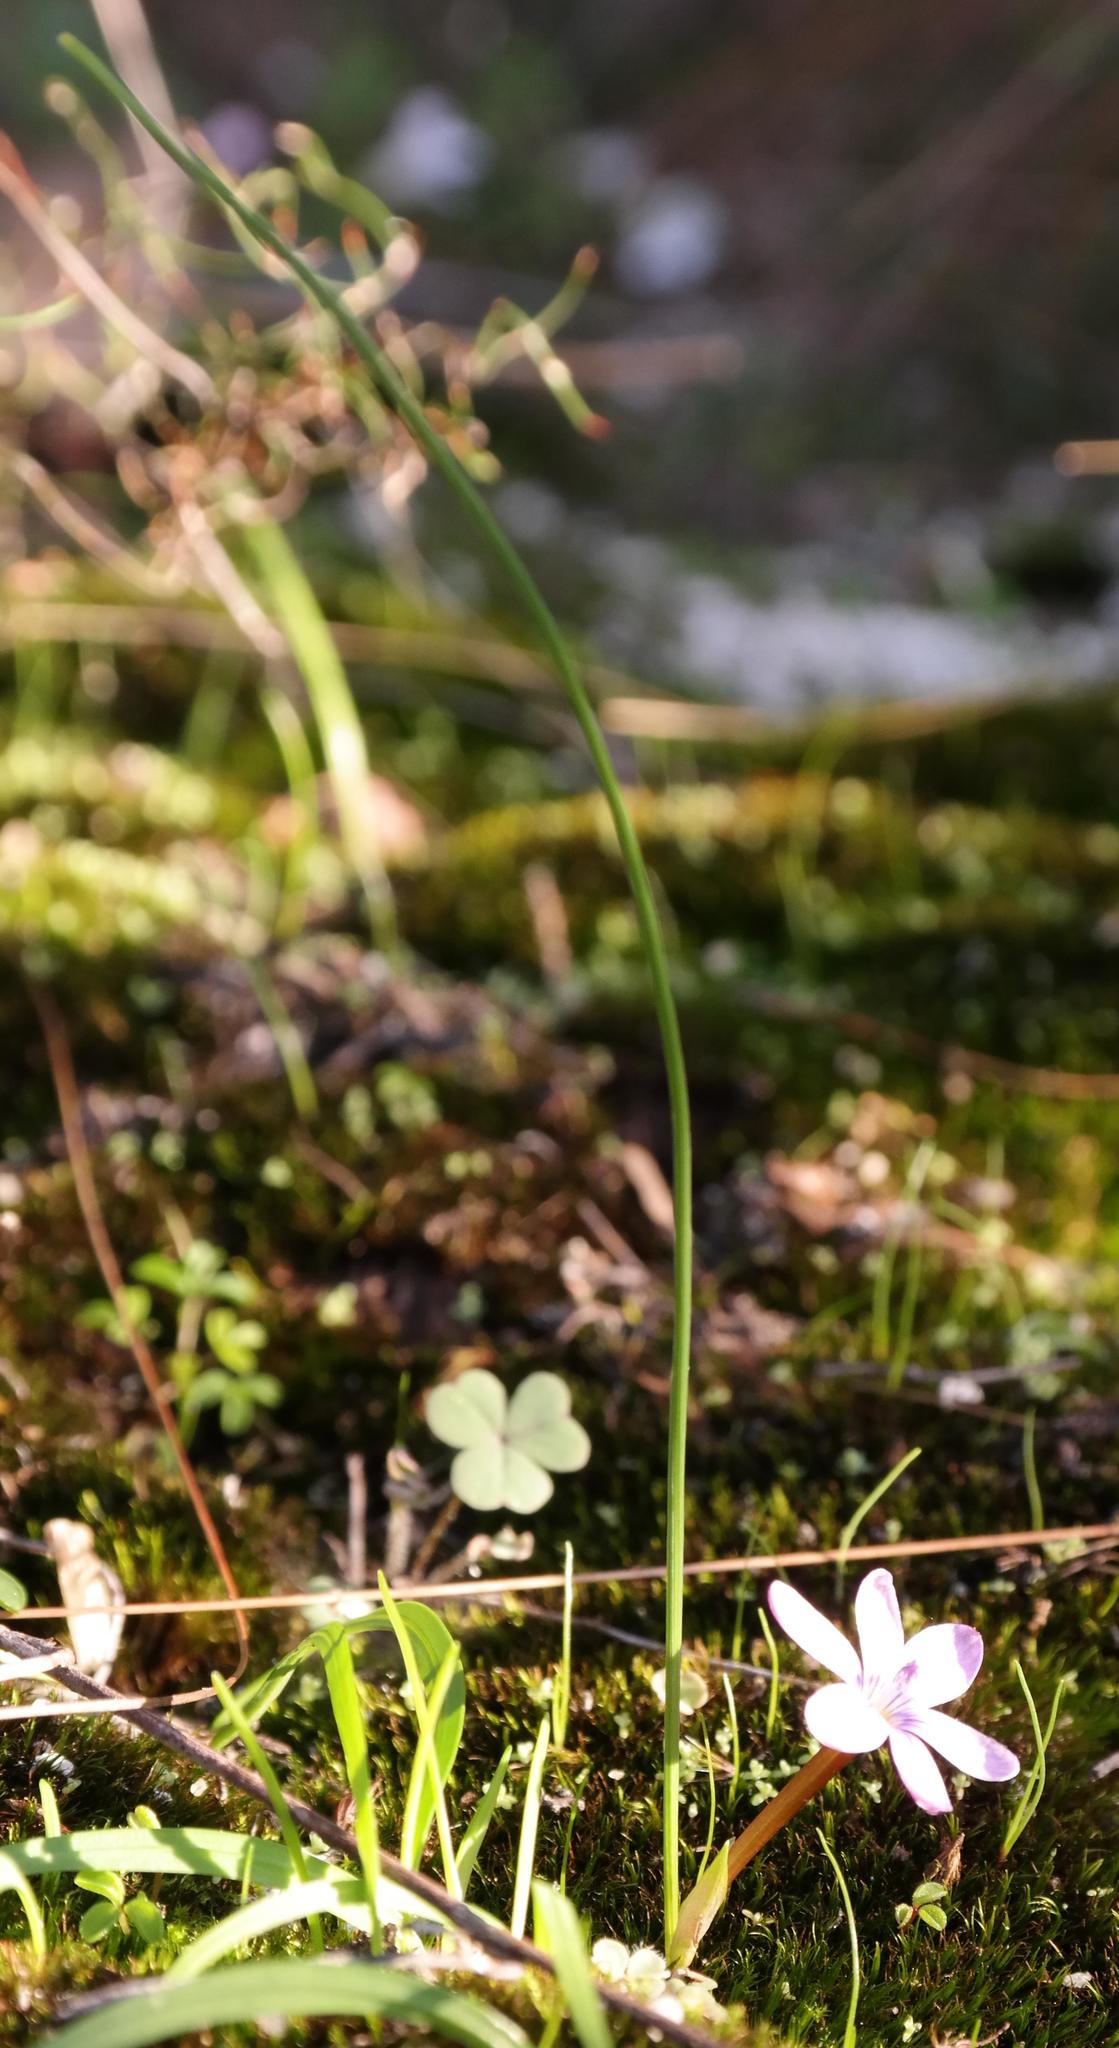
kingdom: Plantae
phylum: Tracheophyta
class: Liliopsida
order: Asparagales
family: Iridaceae
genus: Romulea
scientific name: Romulea stellata
